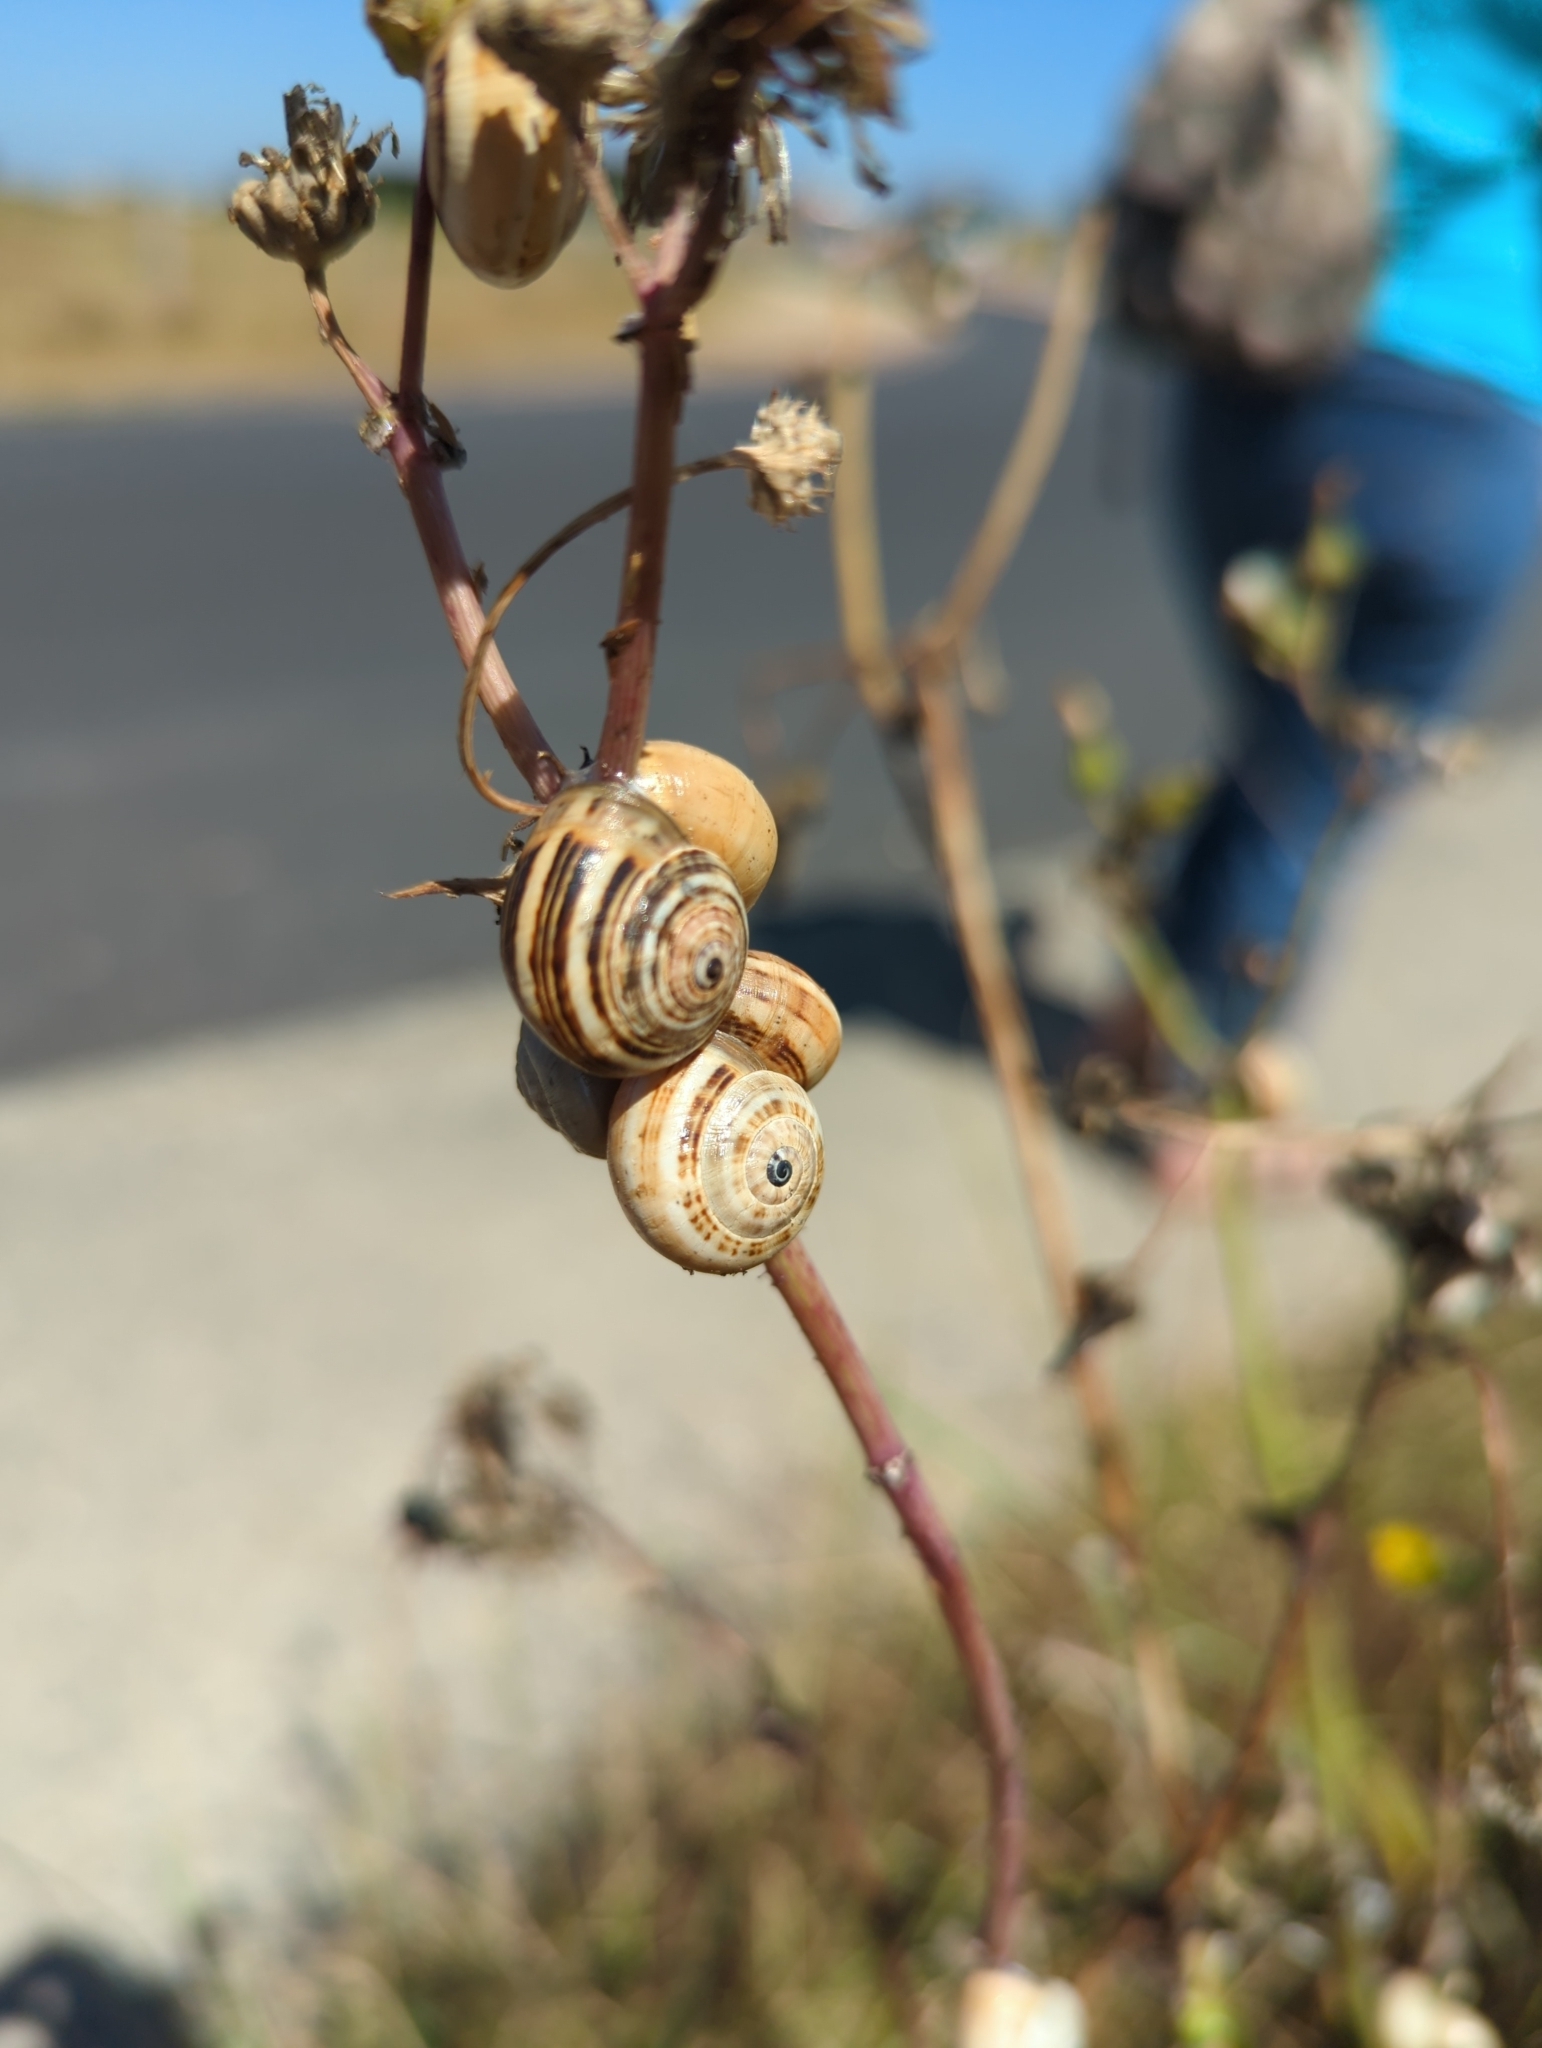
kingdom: Animalia
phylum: Mollusca
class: Gastropoda
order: Stylommatophora
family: Helicidae
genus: Theba
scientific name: Theba pisana
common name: White snail
